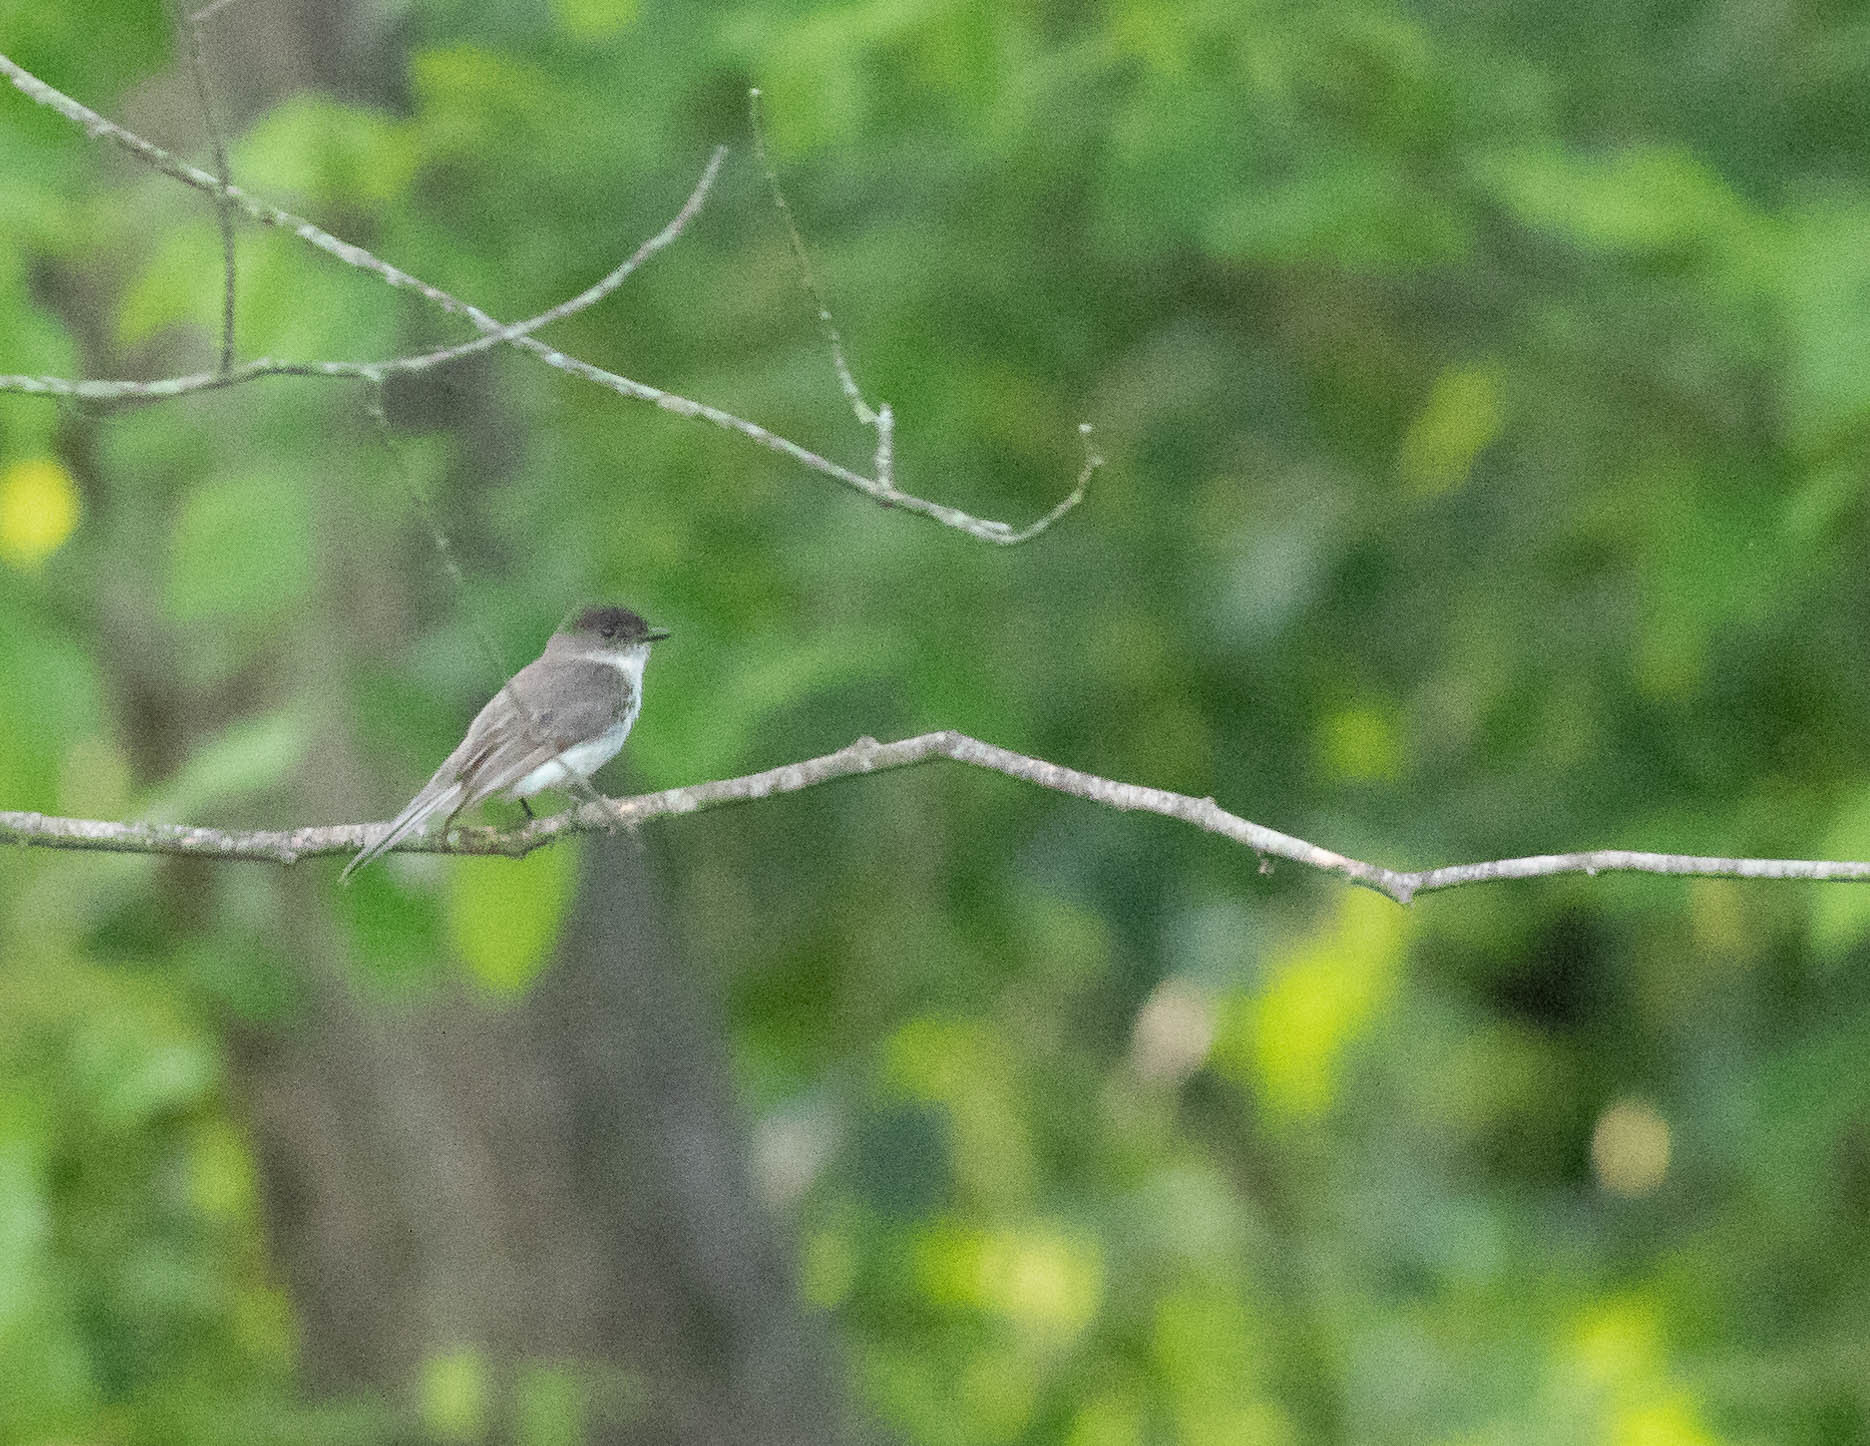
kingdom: Animalia
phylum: Chordata
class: Aves
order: Passeriformes
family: Tyrannidae
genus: Sayornis
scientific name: Sayornis phoebe
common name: Eastern phoebe
